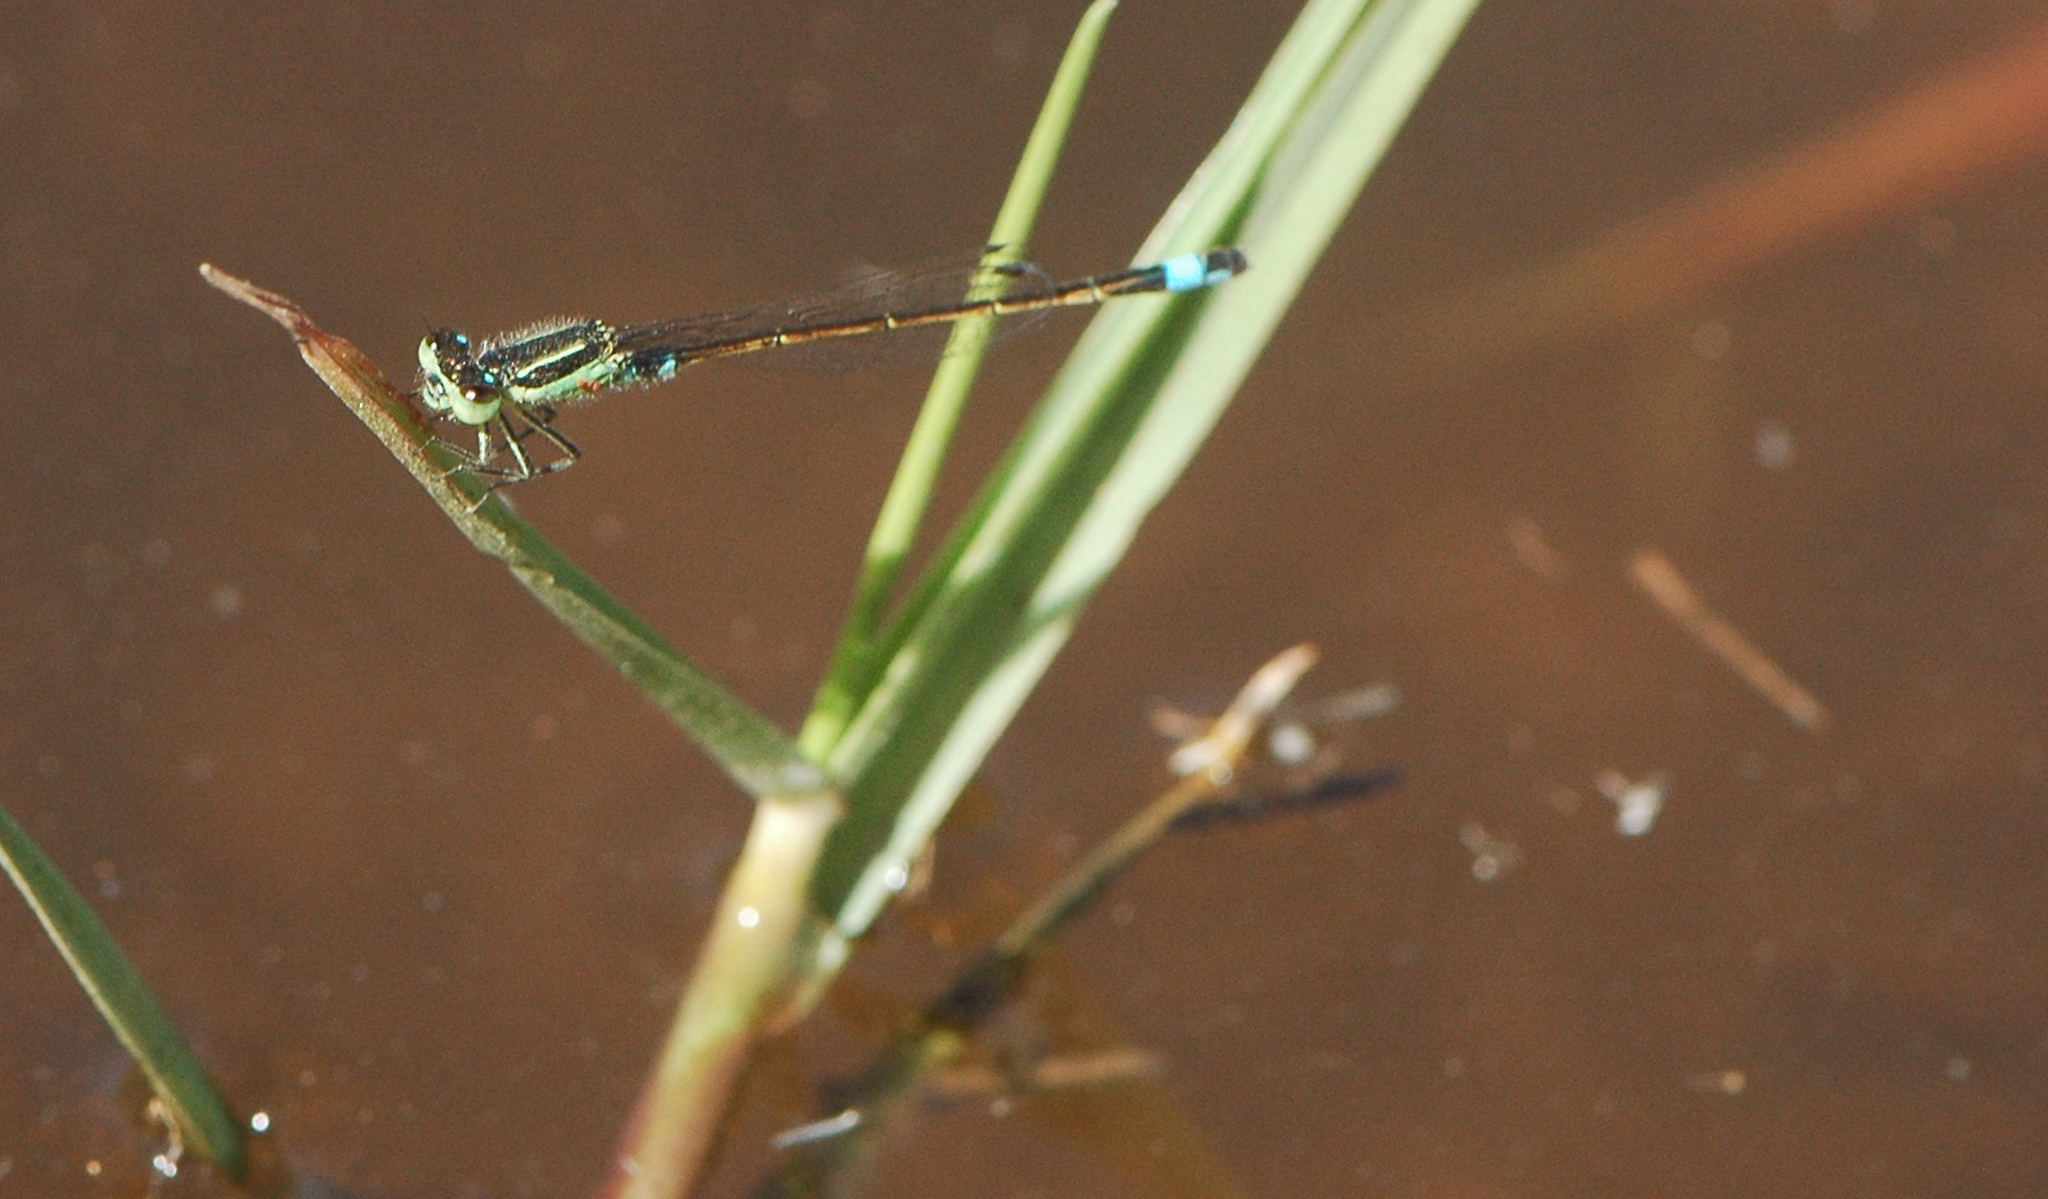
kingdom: Animalia
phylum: Arthropoda
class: Insecta
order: Odonata
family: Coenagrionidae
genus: Ischnura
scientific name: Ischnura senegalensis
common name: Tropical bluetail
